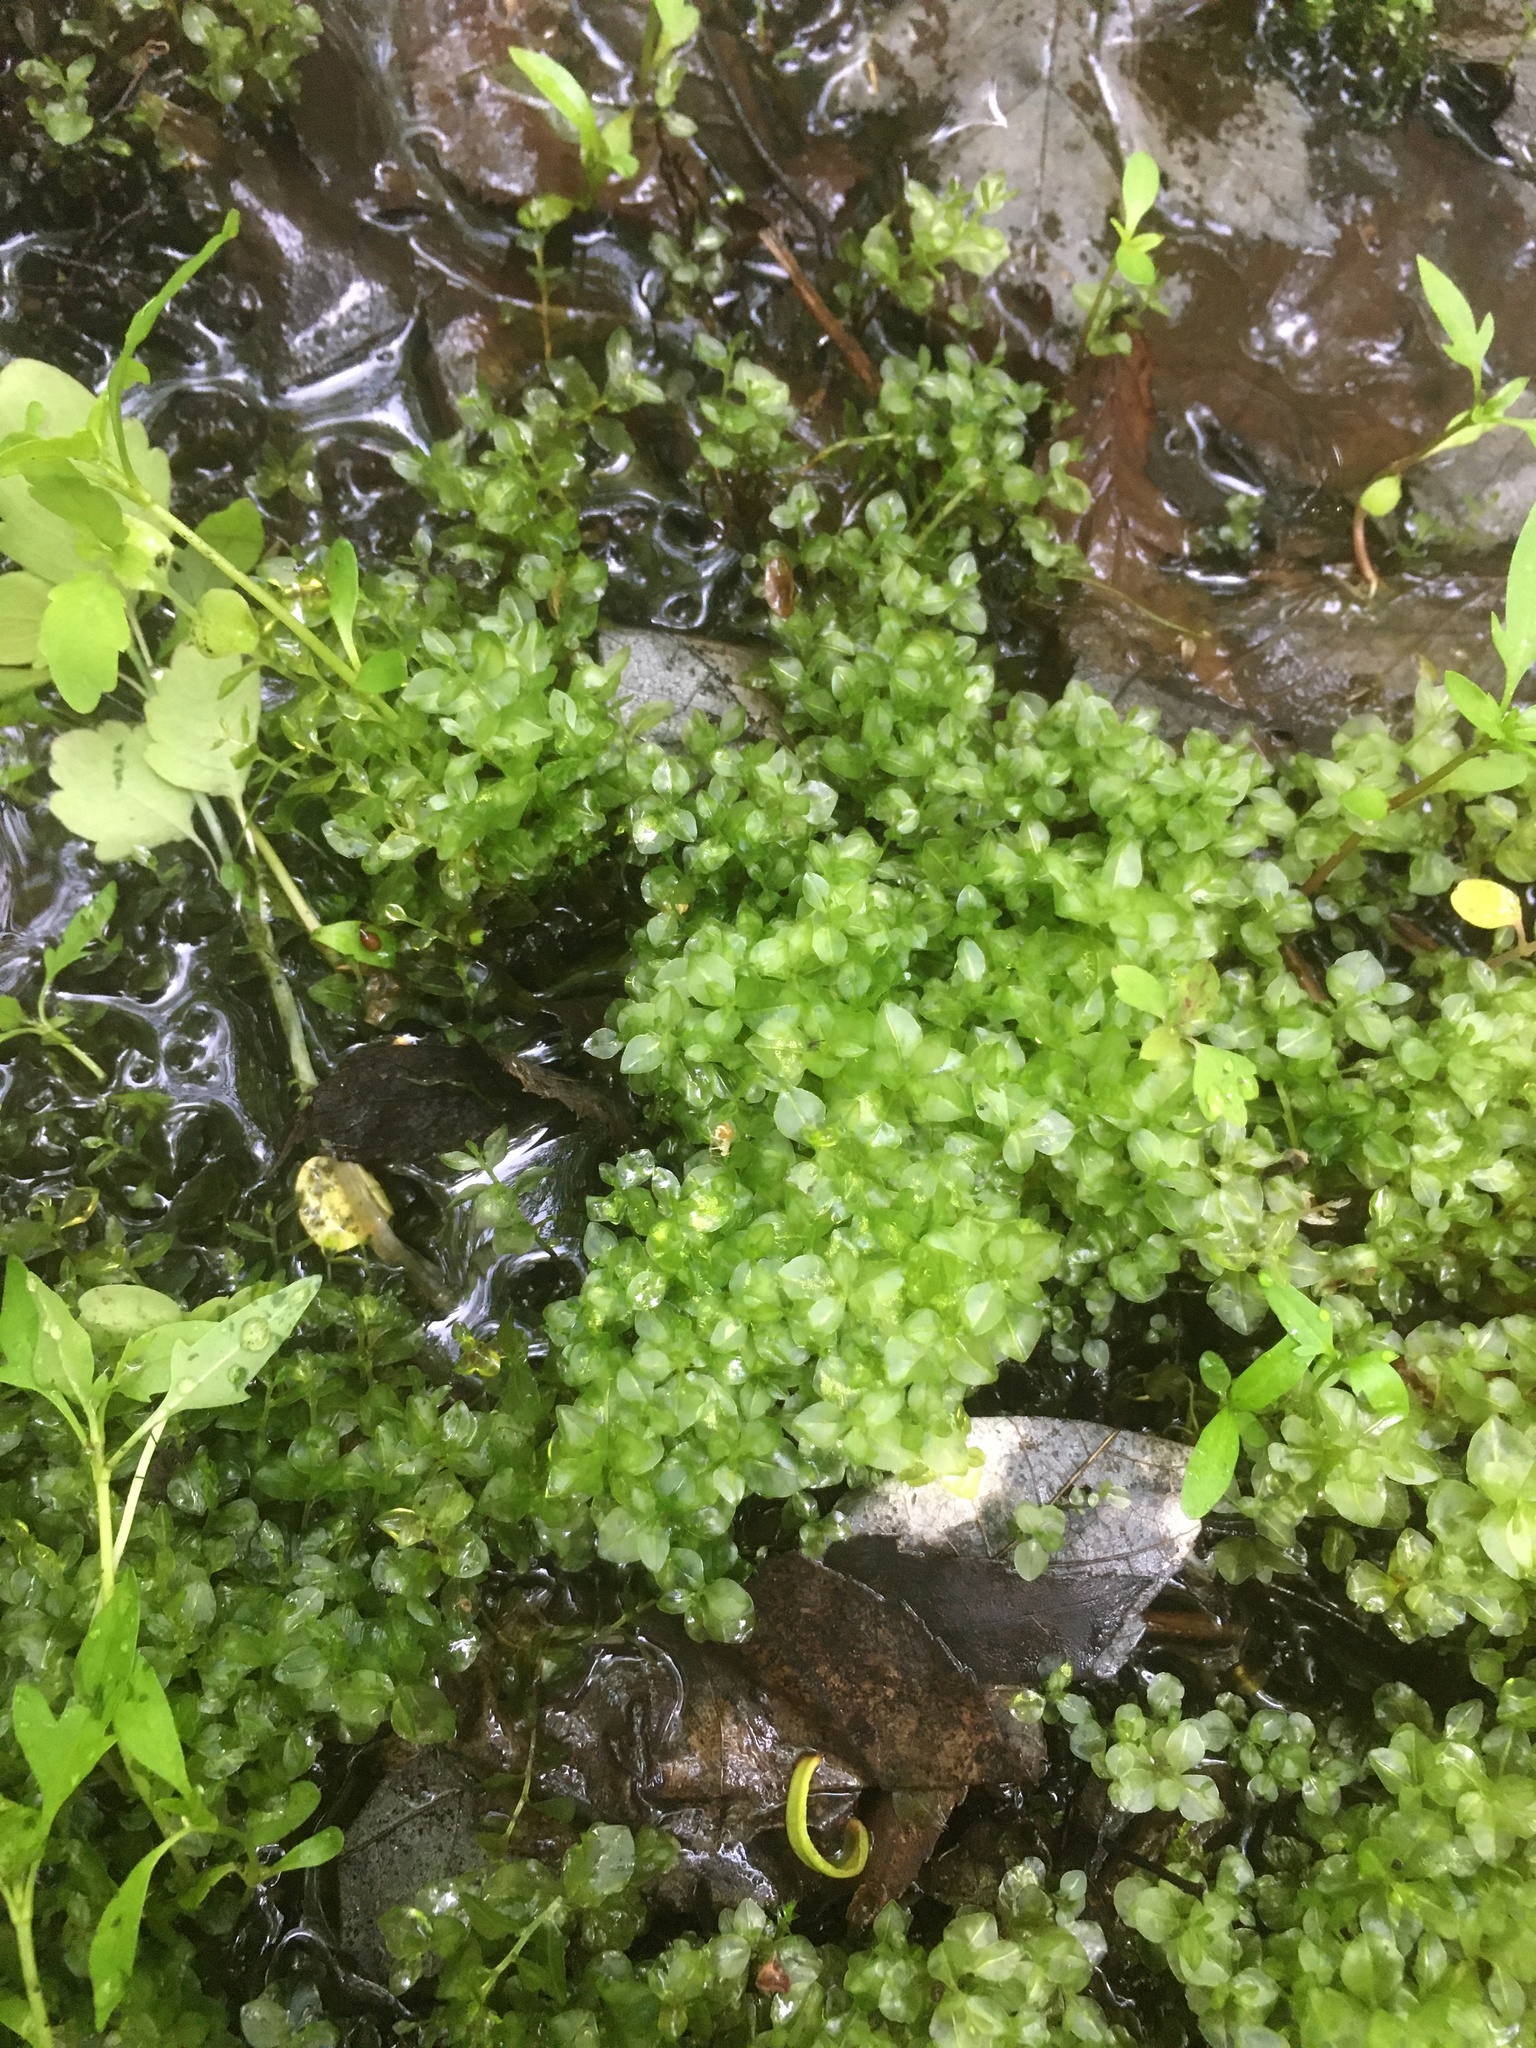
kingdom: Plantae
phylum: Bryophyta
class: Bryopsida
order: Bryales
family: Mniaceae
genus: Rhizomnium
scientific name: Rhizomnium punctatum
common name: Dotted leafy moss
